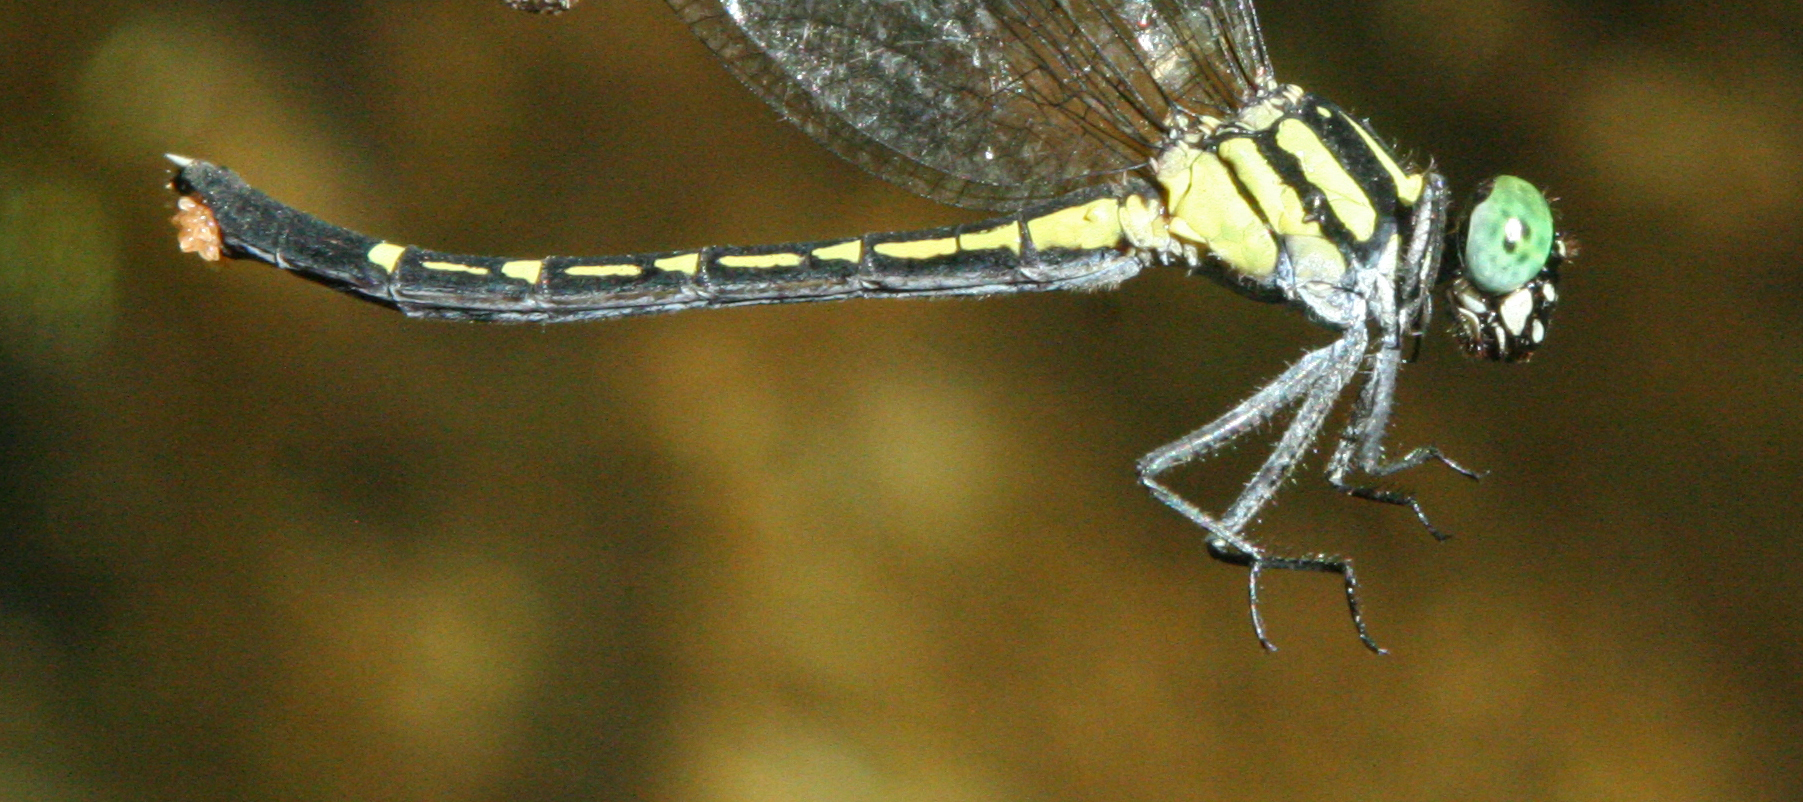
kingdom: Animalia
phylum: Arthropoda
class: Insecta
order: Odonata
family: Gomphidae
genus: Microgomphus
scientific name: Microgomphus alani
